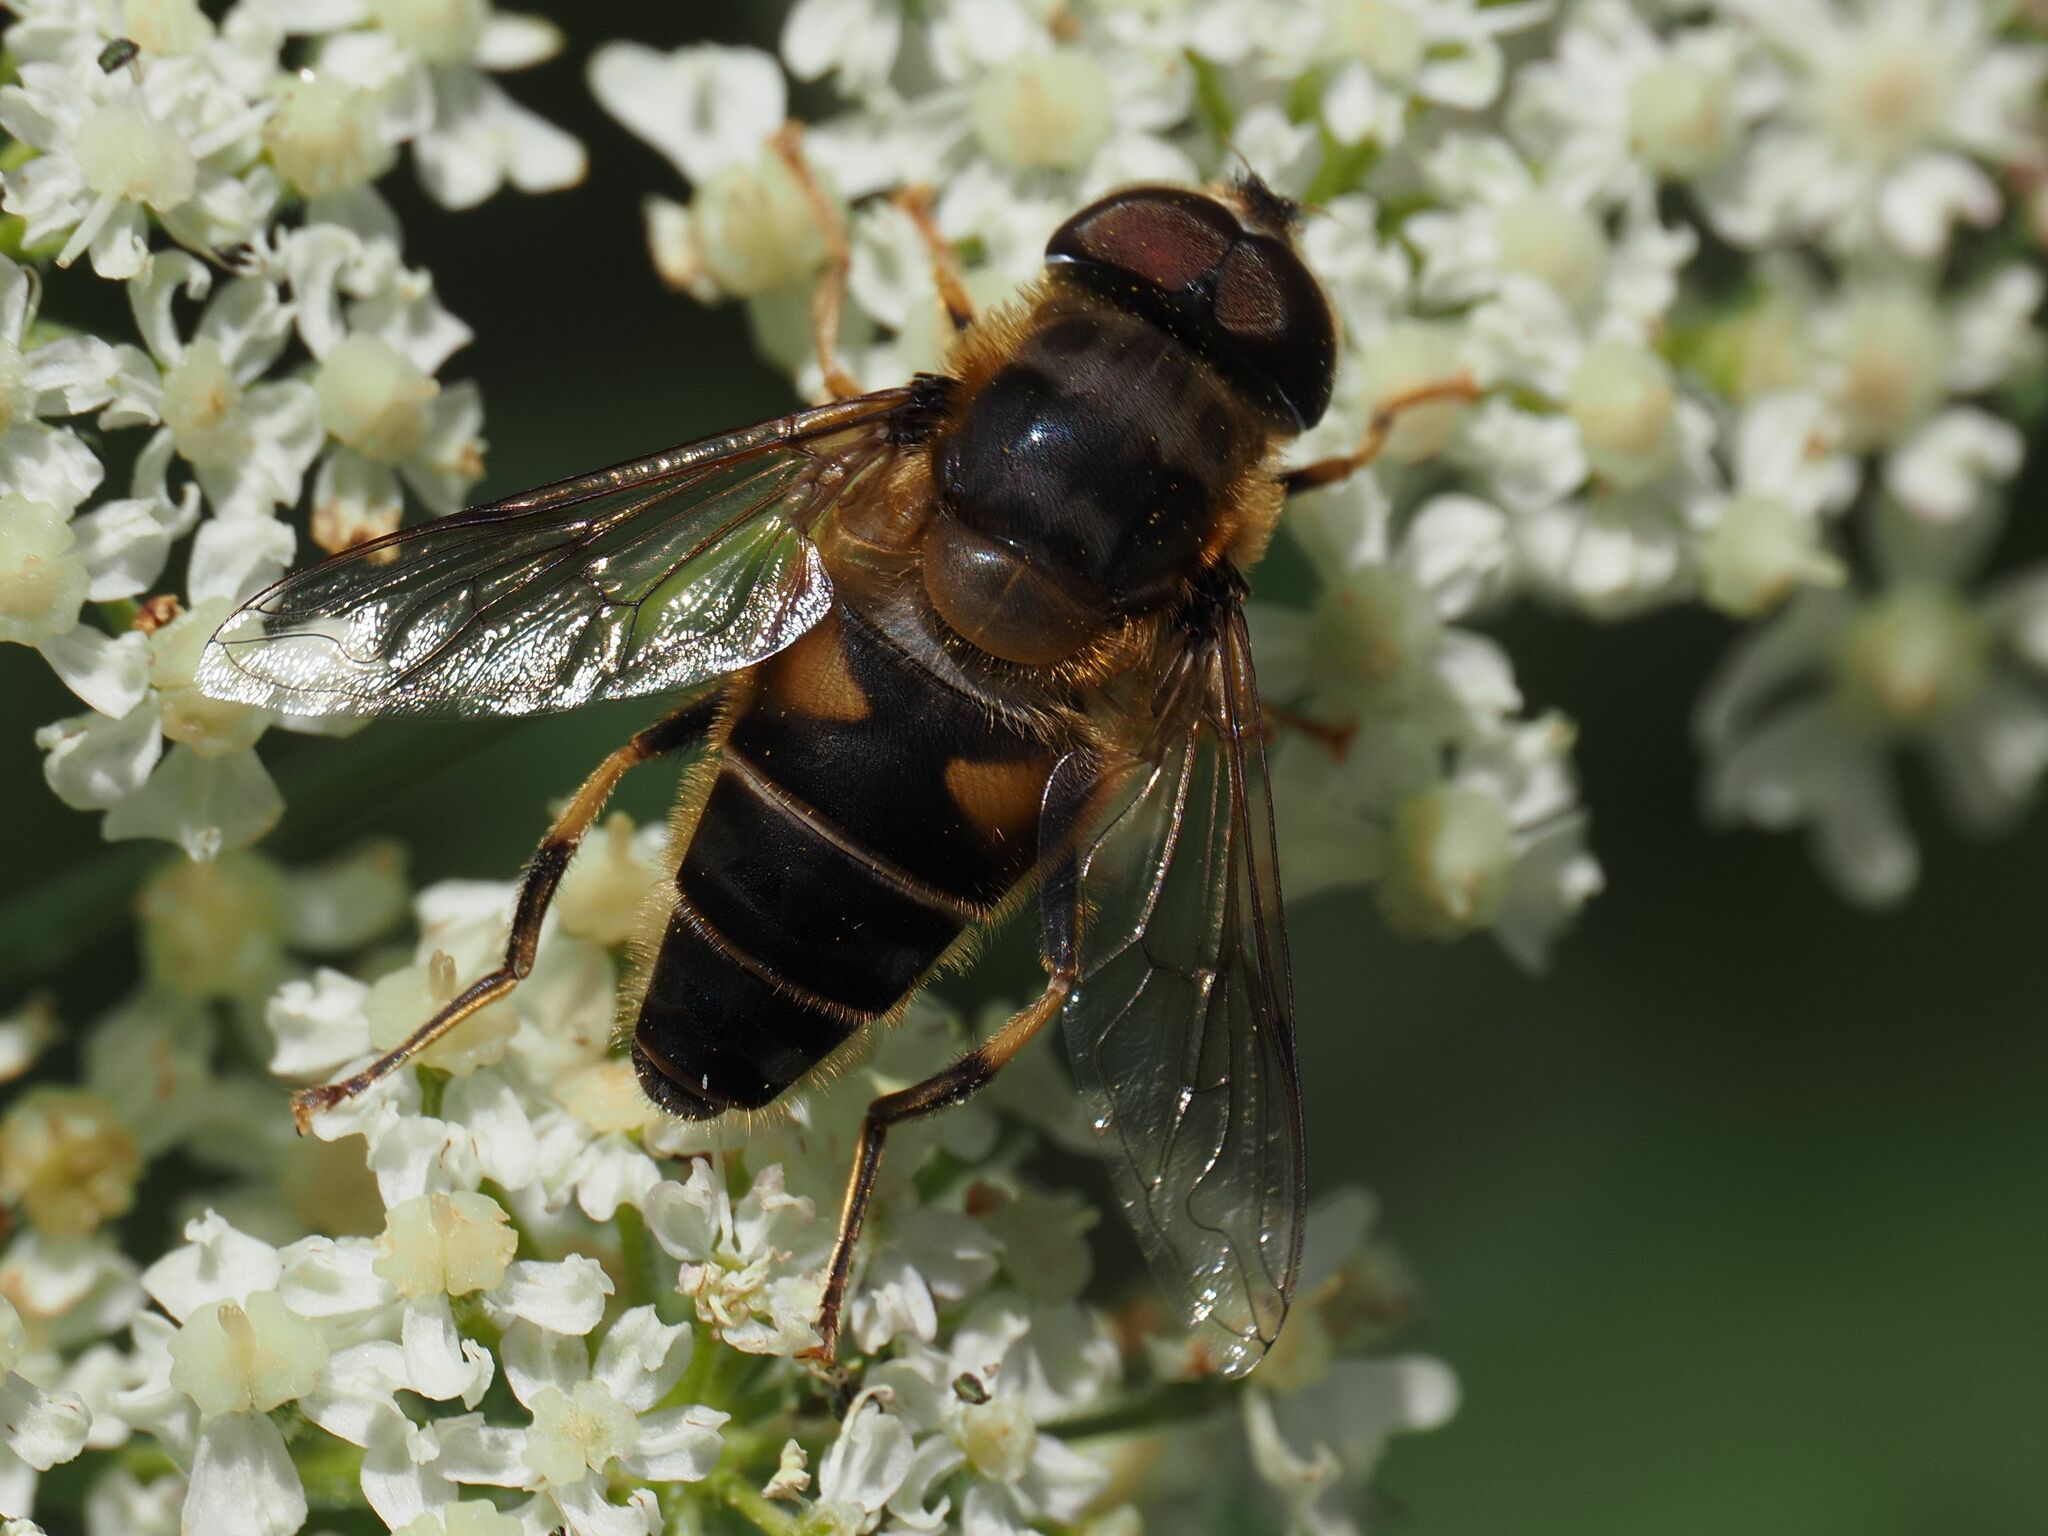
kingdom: Animalia
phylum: Arthropoda
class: Insecta
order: Diptera
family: Syrphidae
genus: Eristalis
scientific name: Eristalis pertinax
